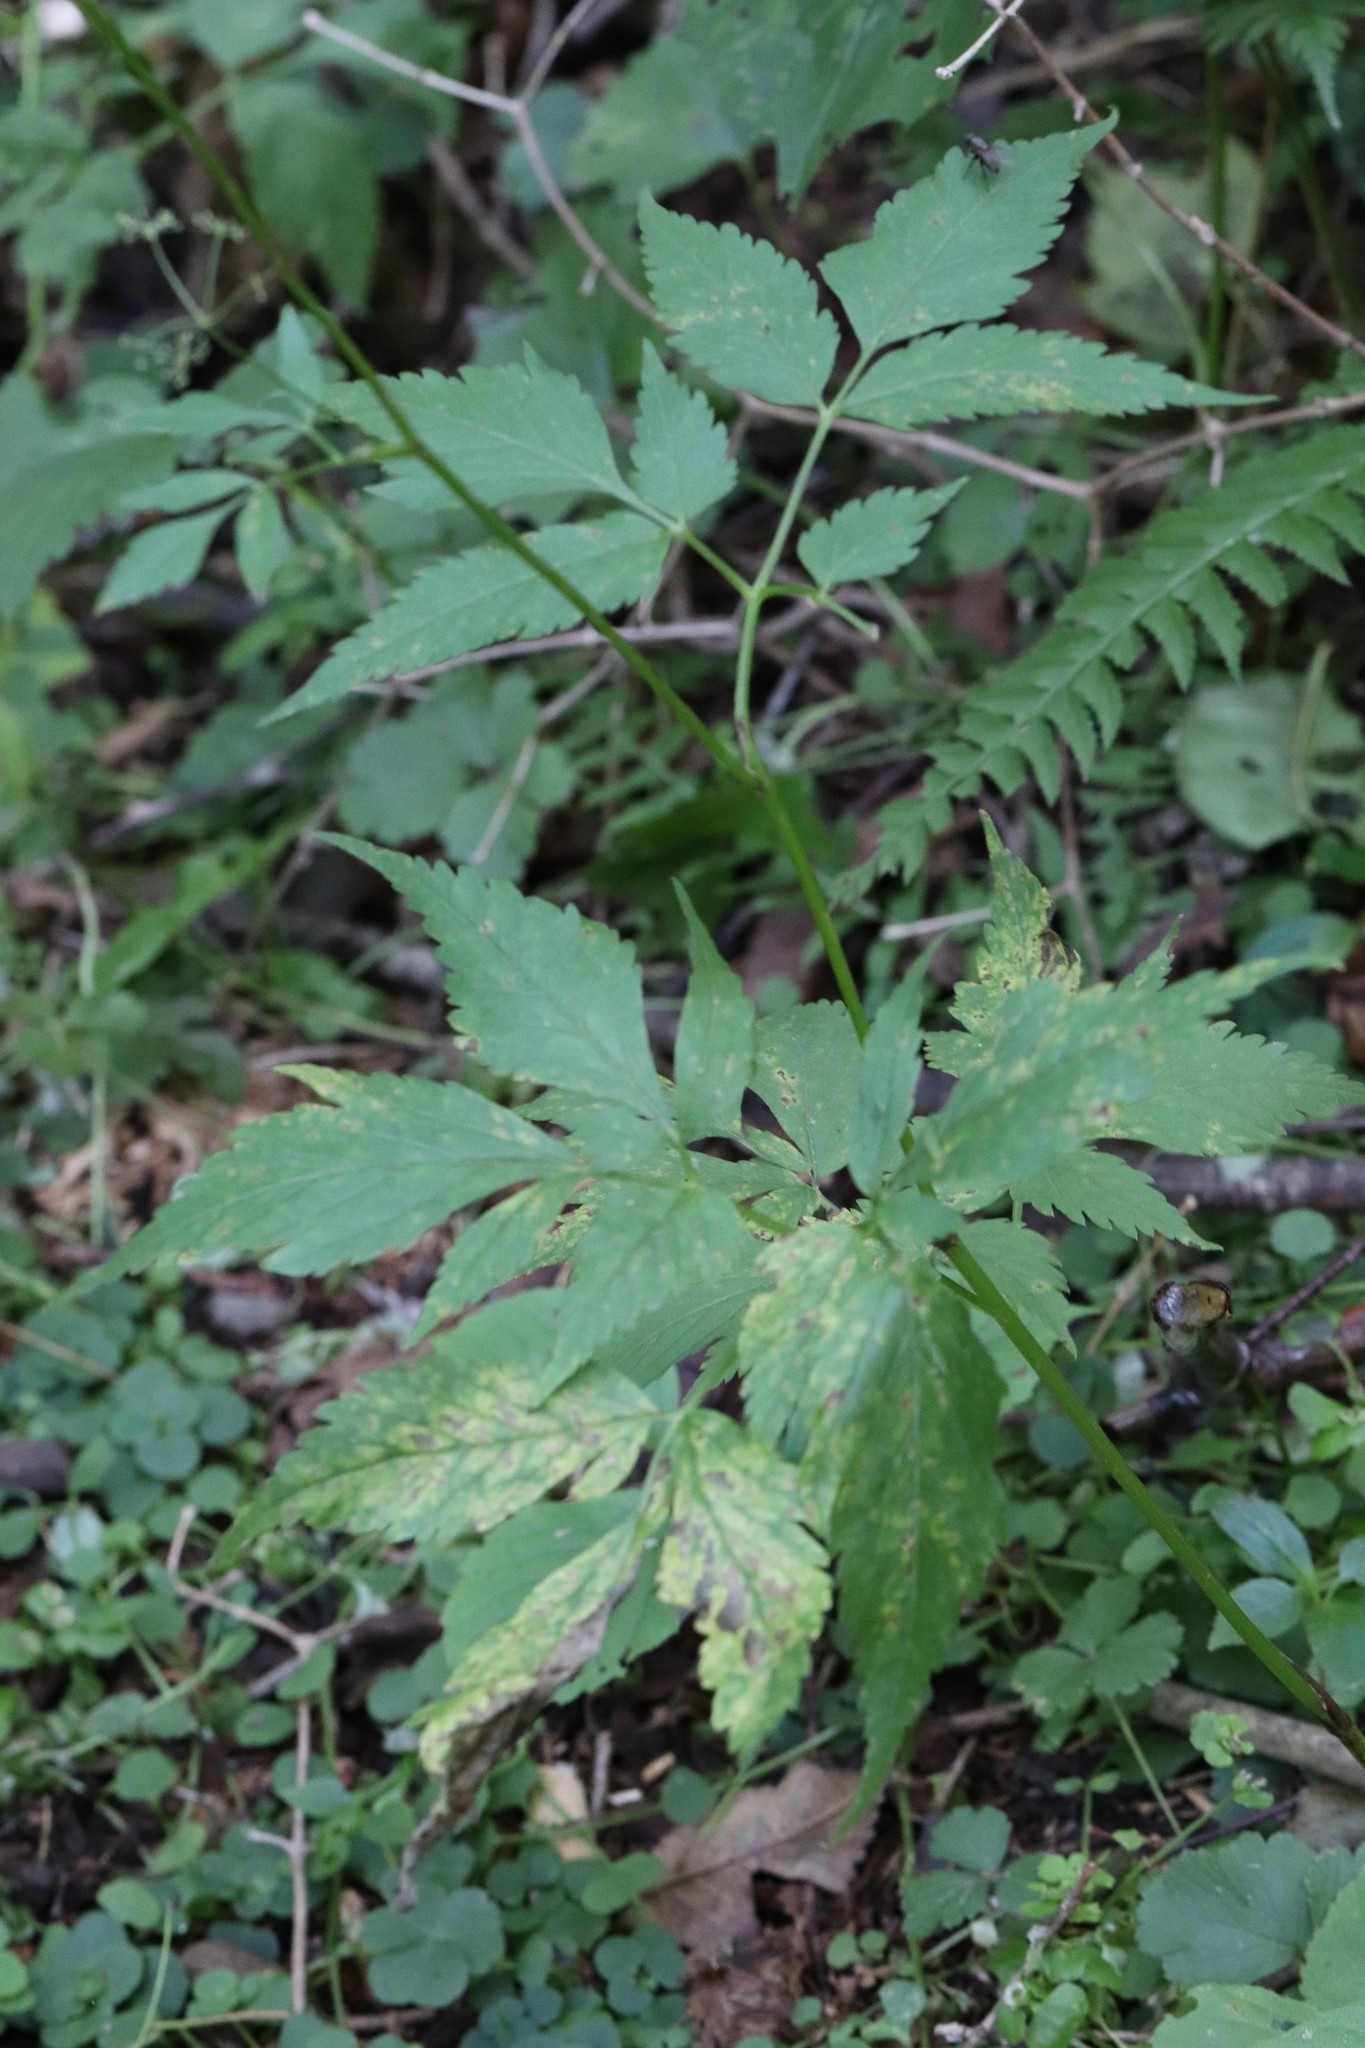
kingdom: Plantae
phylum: Tracheophyta
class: Magnoliopsida
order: Apiales
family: Apiaceae
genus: Spuriopimpinella
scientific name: Spuriopimpinella calycina
